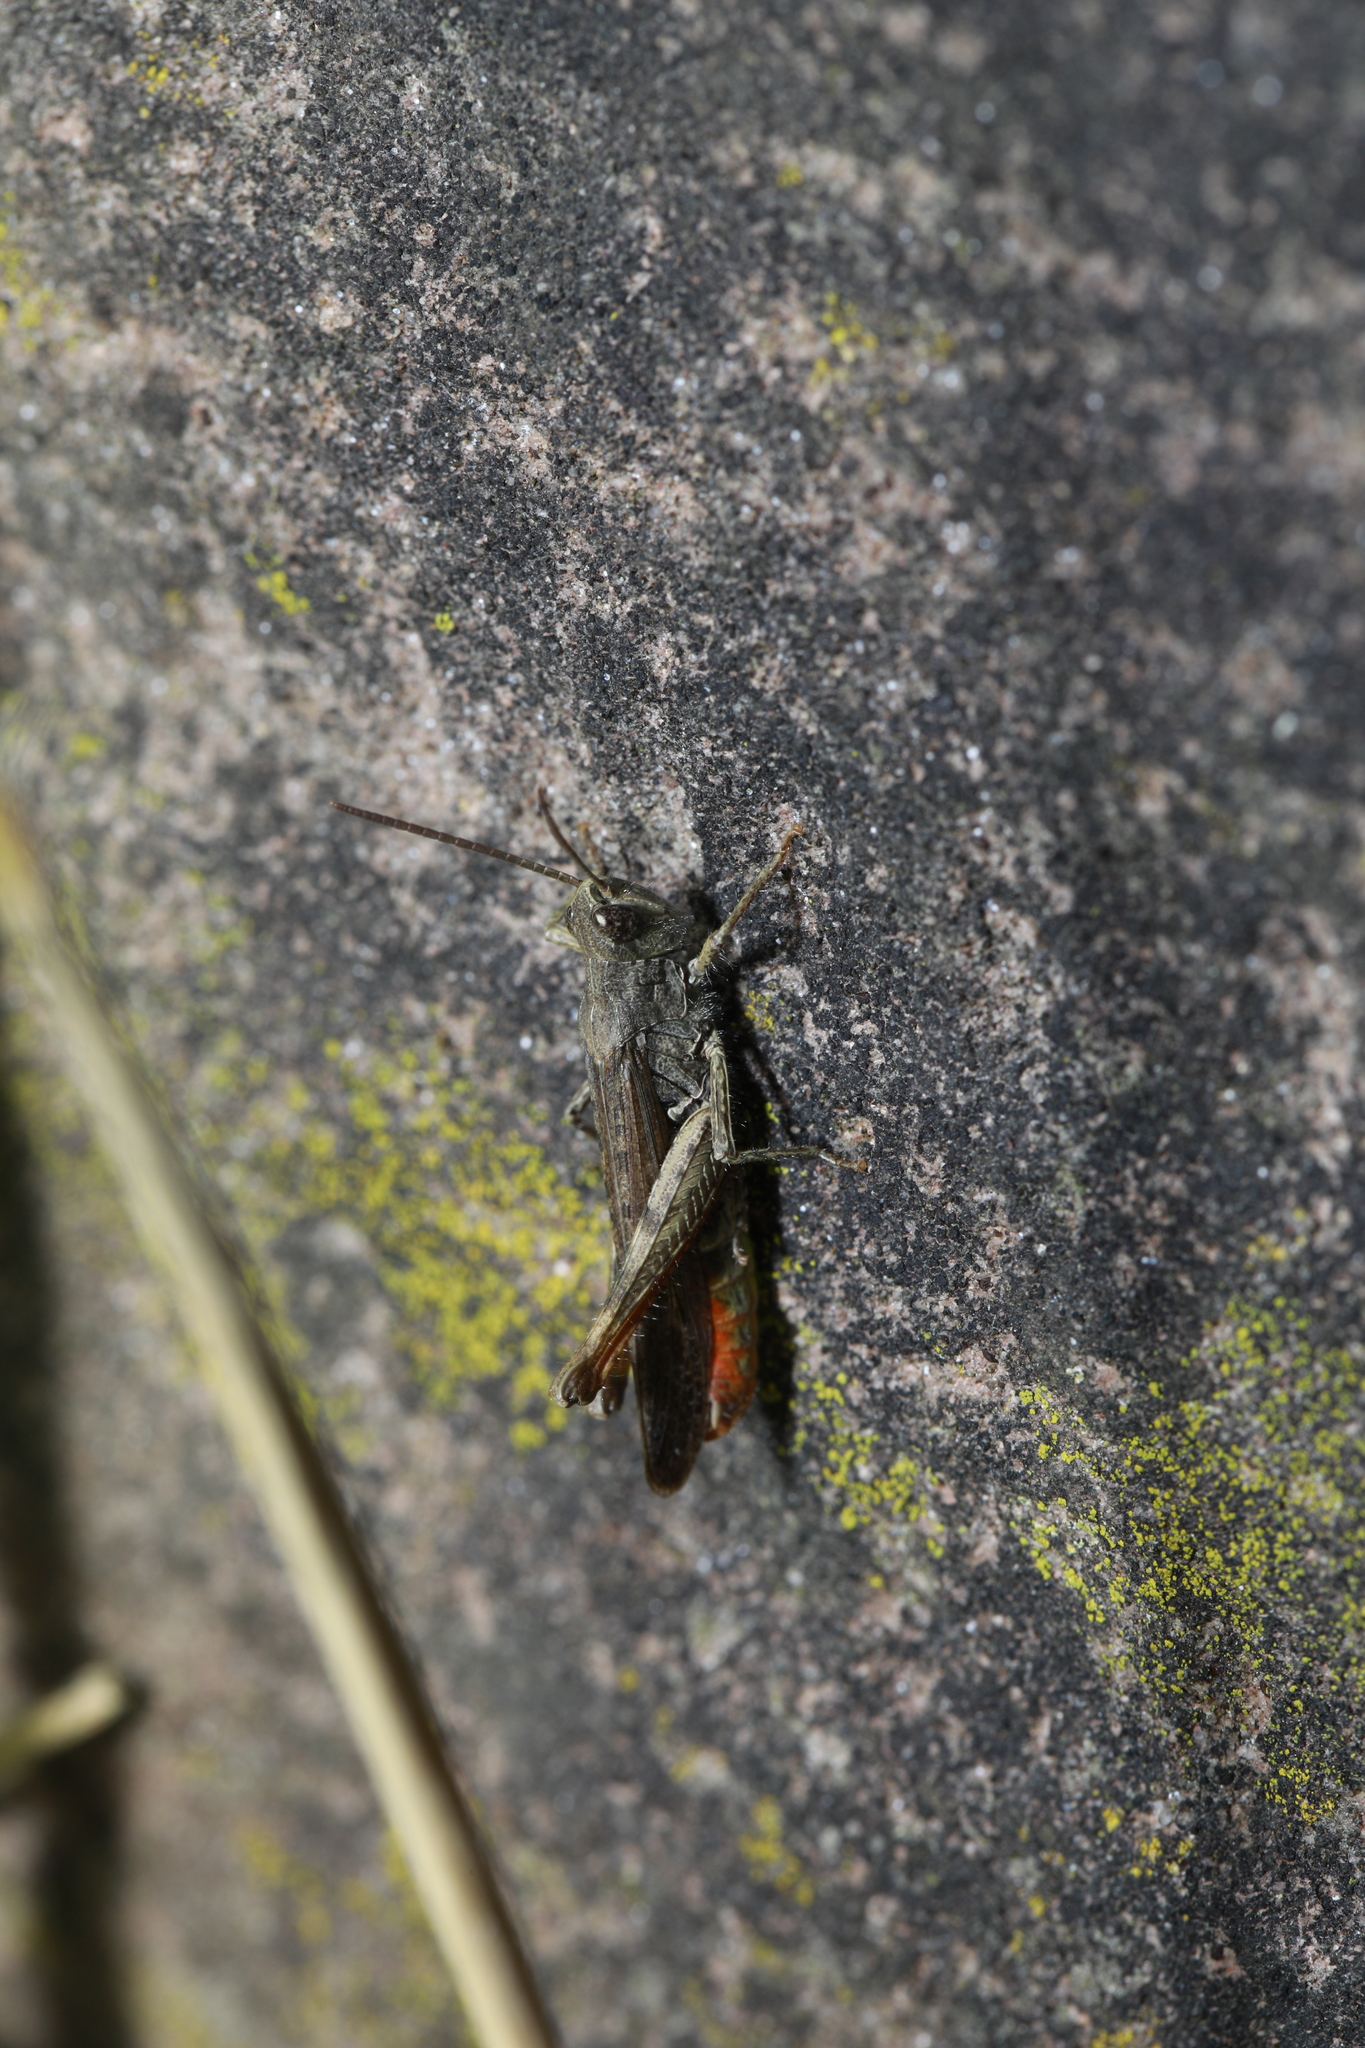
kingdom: Animalia
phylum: Arthropoda
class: Insecta
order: Orthoptera
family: Acrididae
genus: Chorthippus
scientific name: Chorthippus brunneus
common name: Field grasshopper
